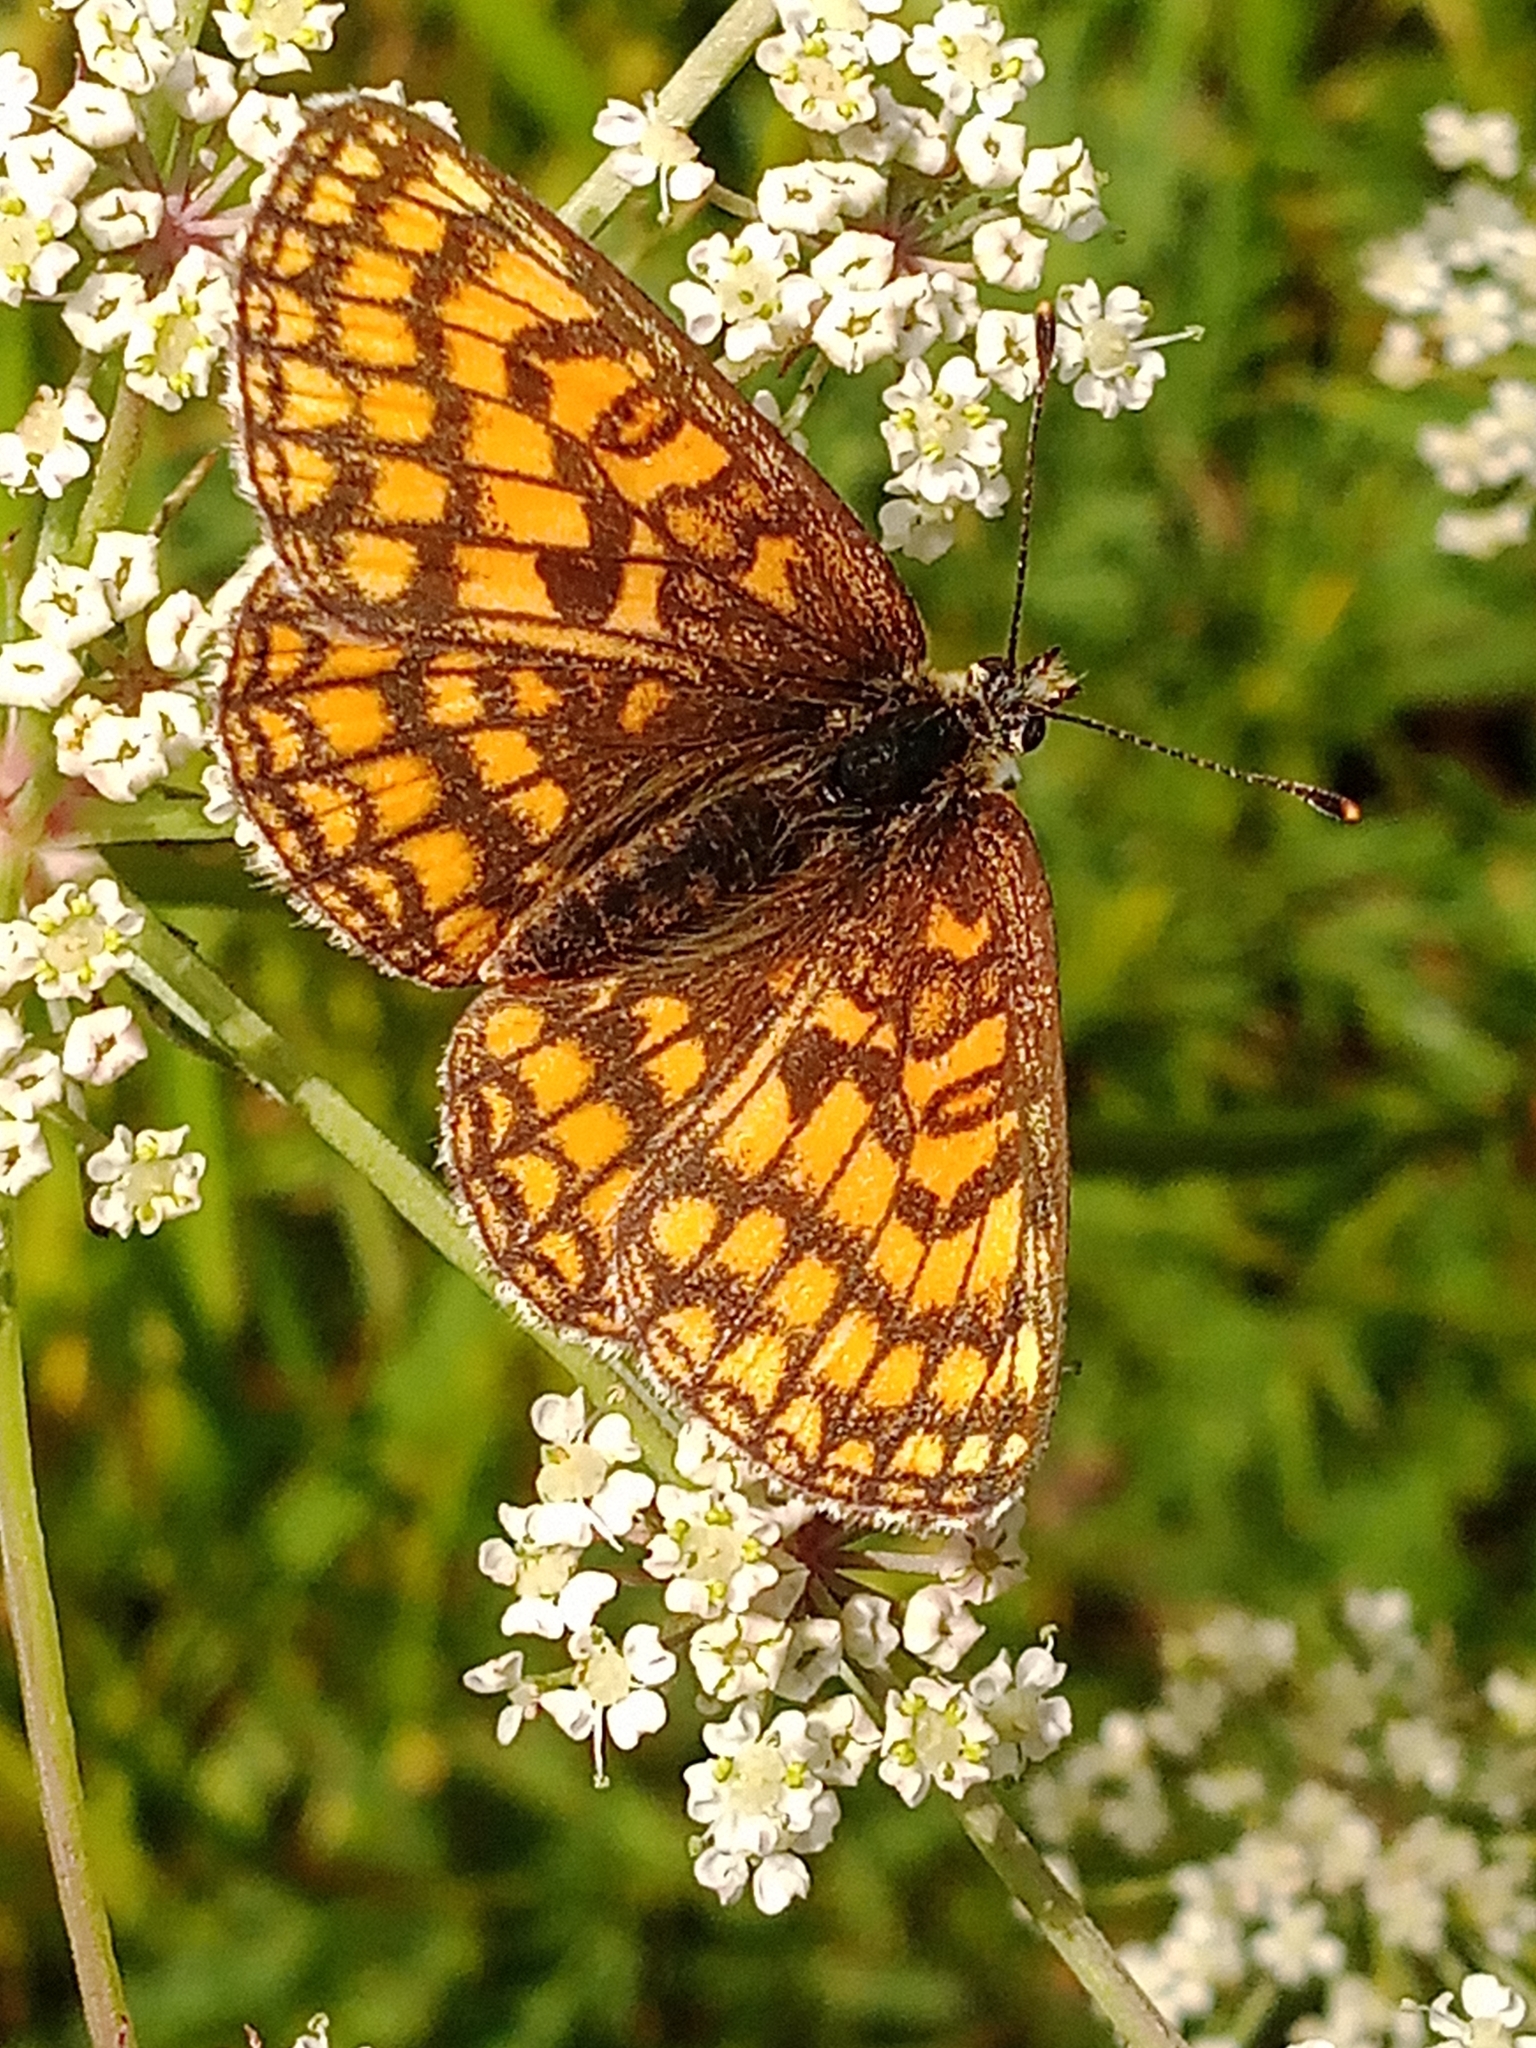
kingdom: Animalia
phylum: Arthropoda
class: Insecta
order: Lepidoptera
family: Nymphalidae
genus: Melitaea
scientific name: Melitaea athalia
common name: Heath fritillary
